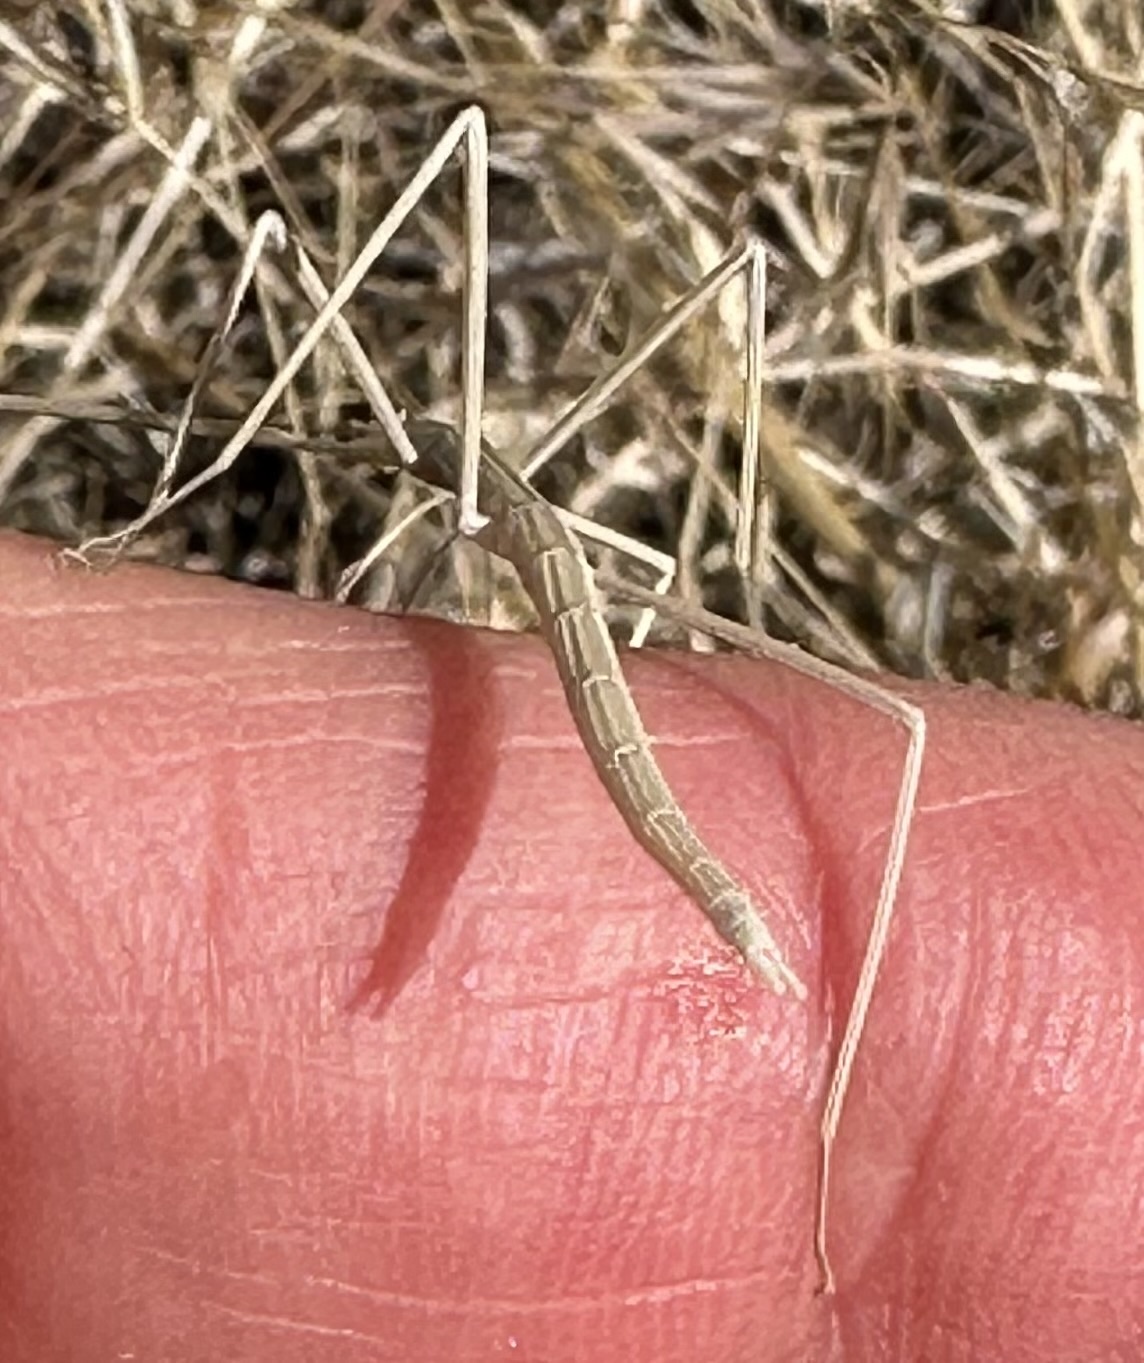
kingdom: Animalia
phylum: Arthropoda
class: Insecta
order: Phasmida
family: Heteronemiidae
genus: Parabacillus
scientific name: Parabacillus hesperus
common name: Western short-horned walkingstick
